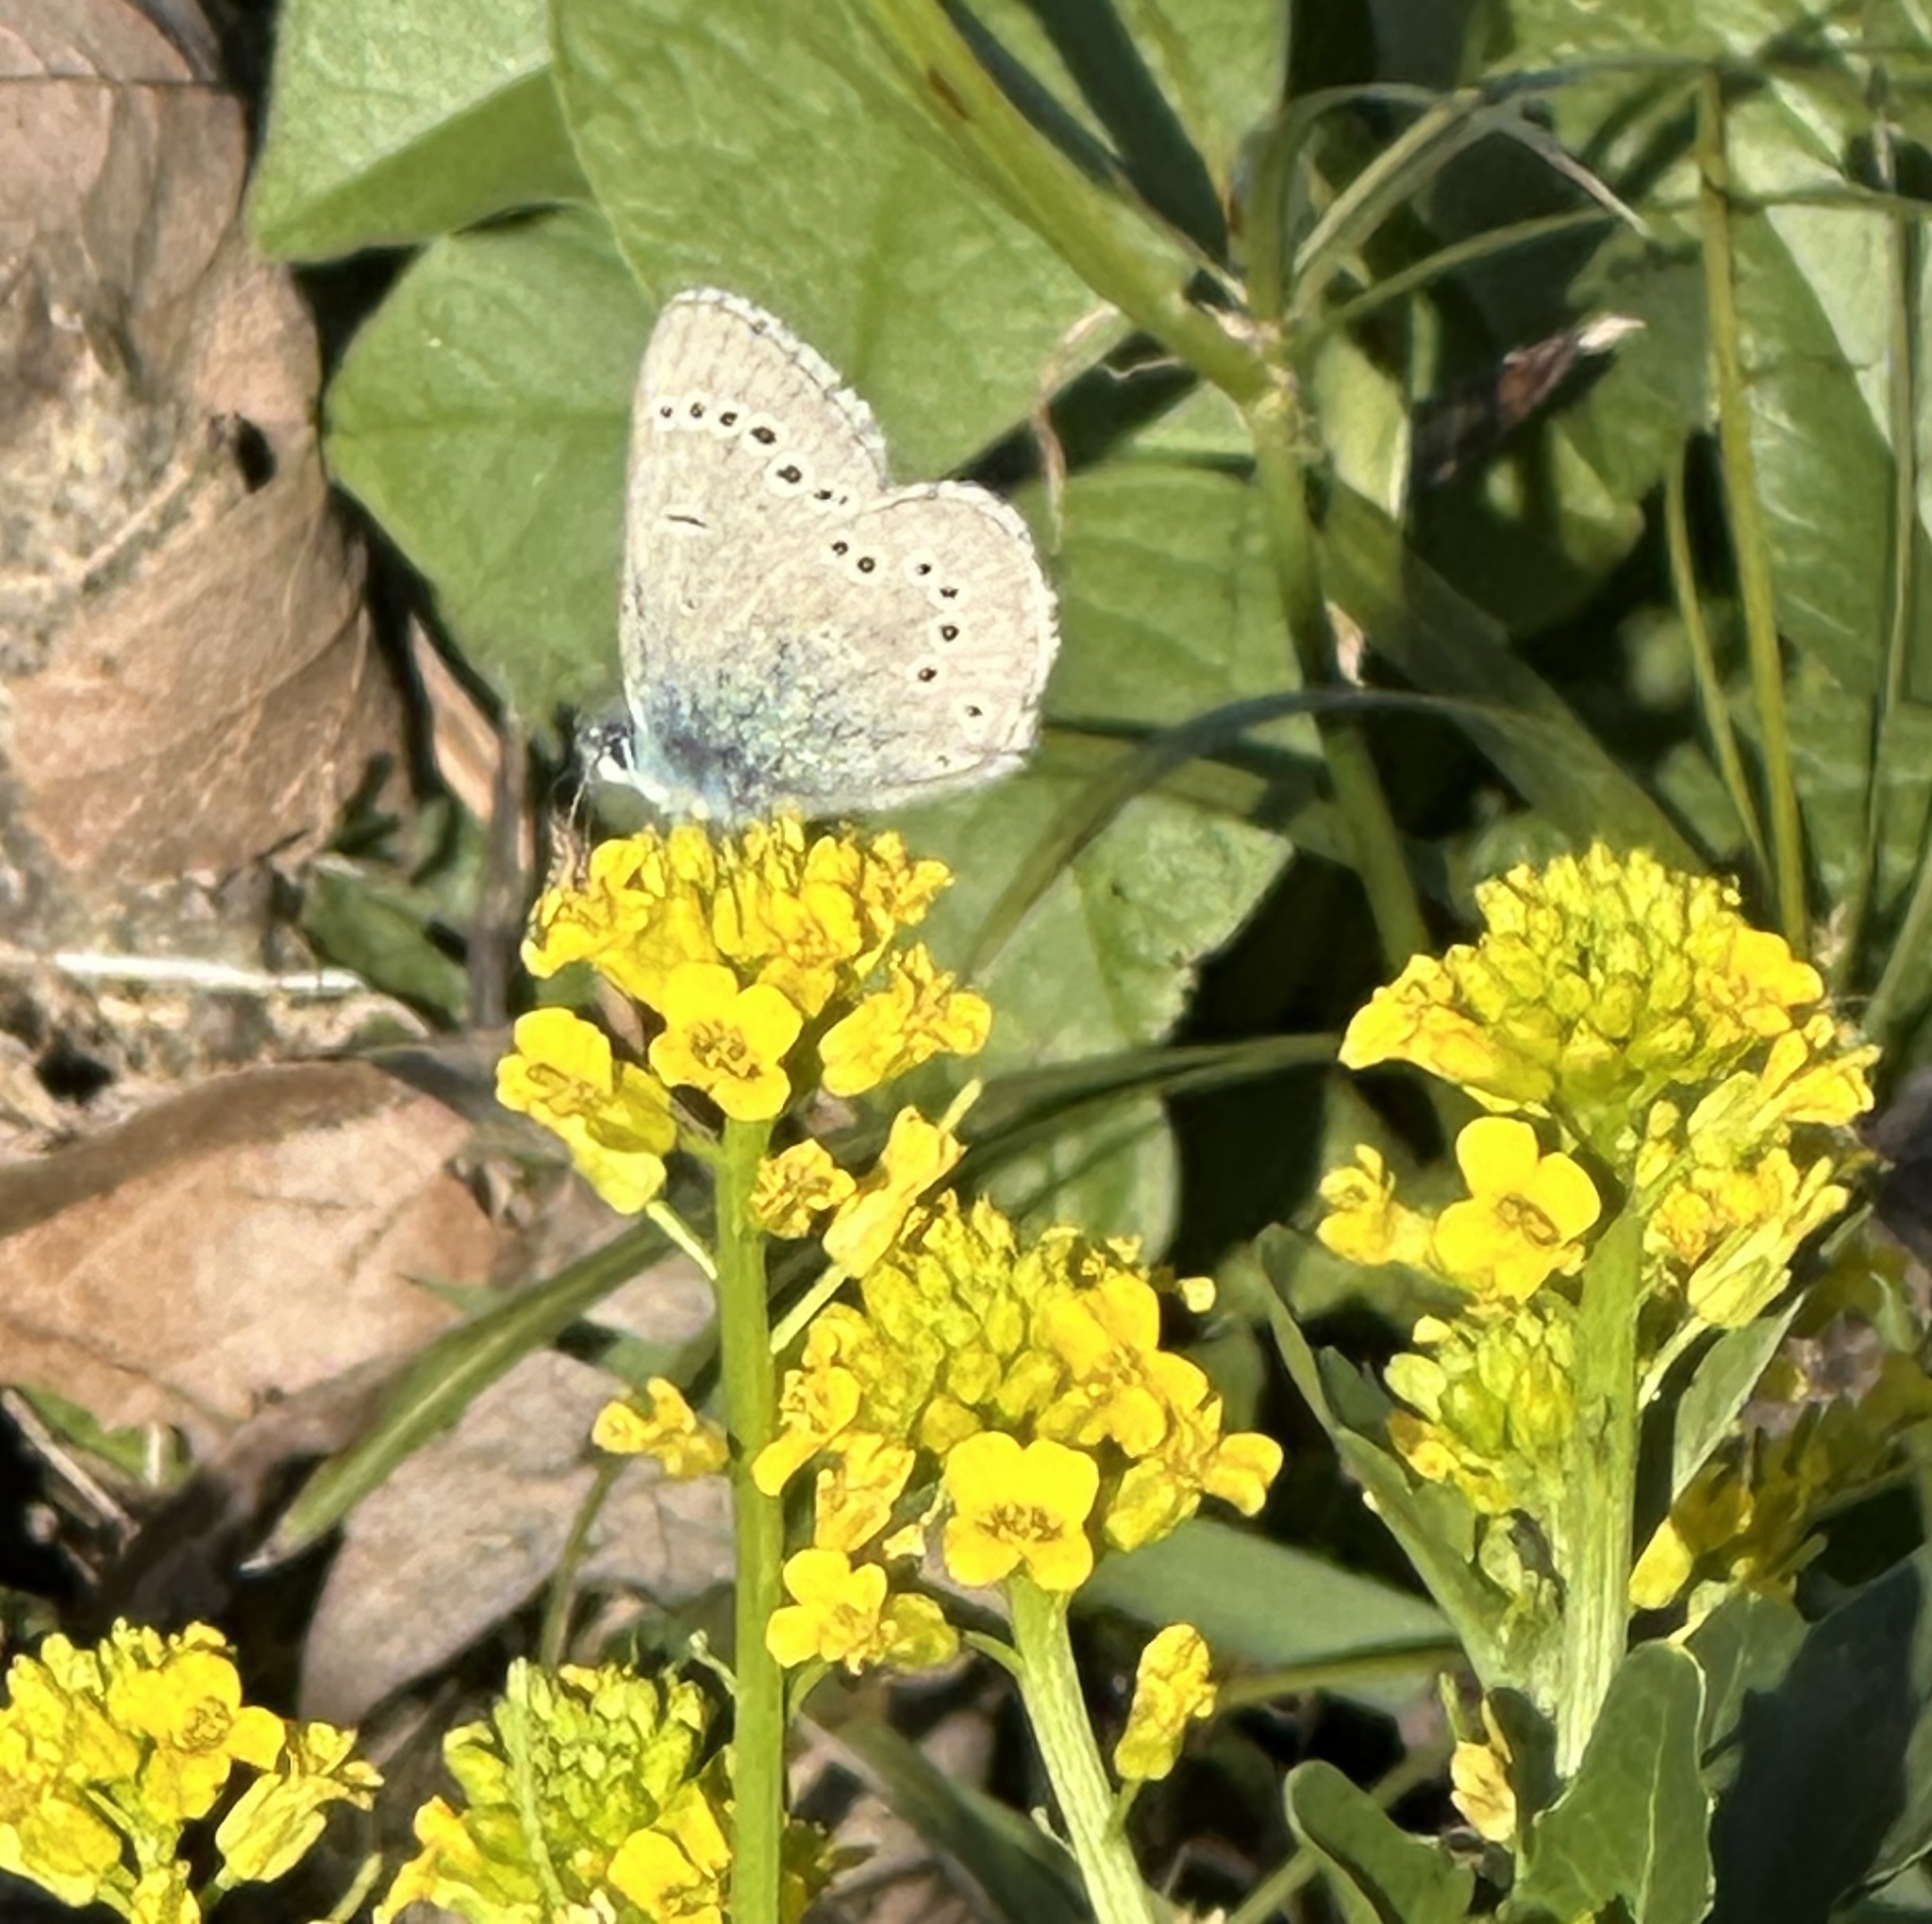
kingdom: Animalia
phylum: Arthropoda
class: Insecta
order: Lepidoptera
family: Lycaenidae
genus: Glaucopsyche
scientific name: Glaucopsyche lygdamus
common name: Silvery blue
